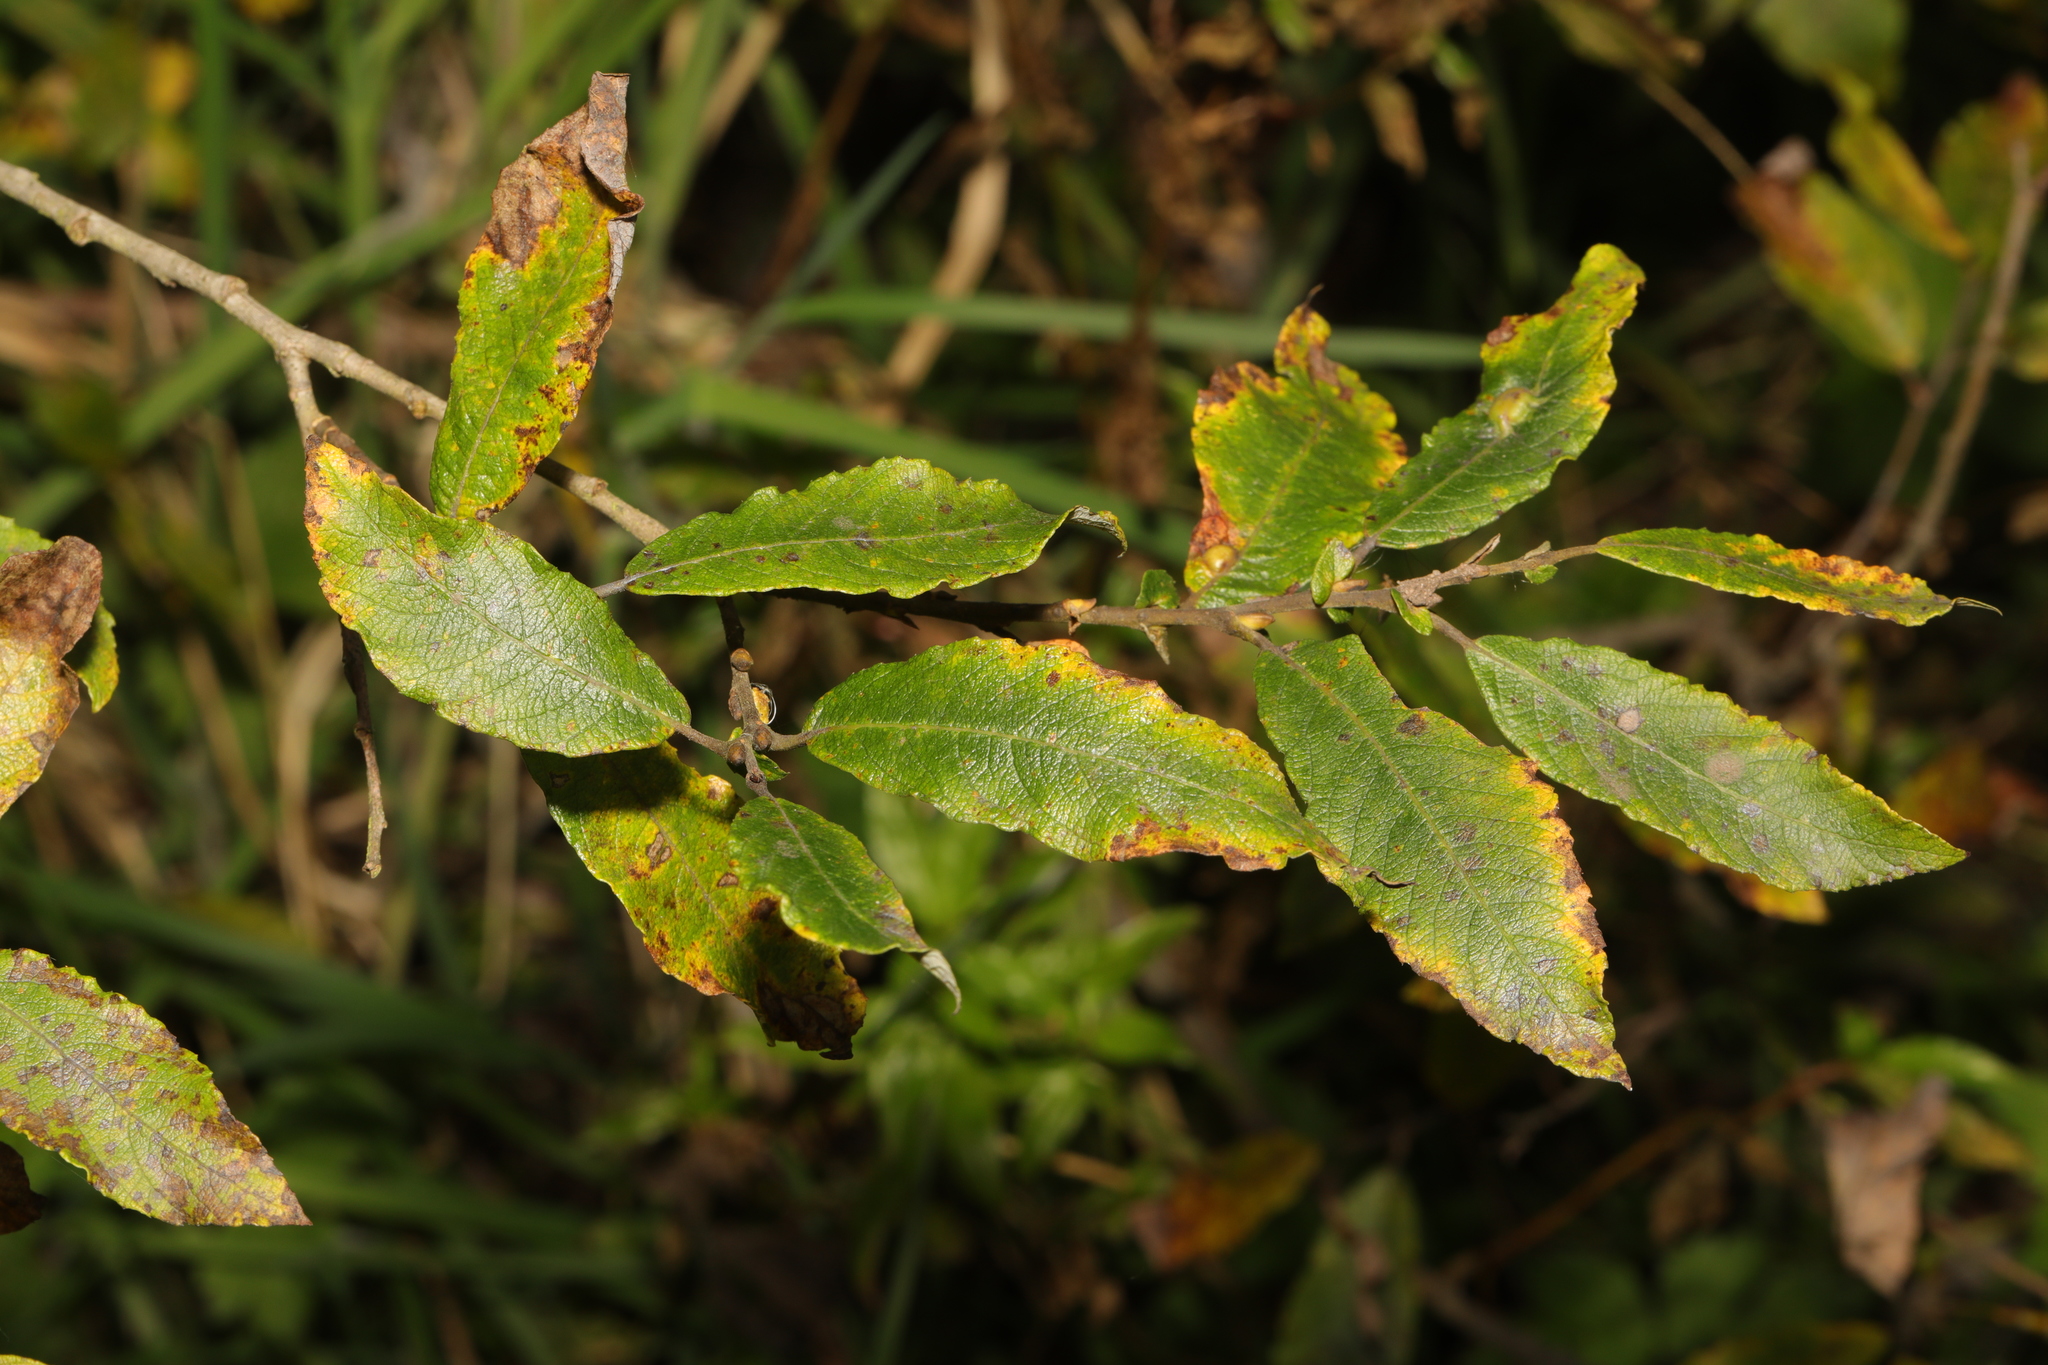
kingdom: Plantae
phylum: Tracheophyta
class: Magnoliopsida
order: Malpighiales
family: Salicaceae
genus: Salix
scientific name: Salix cinerea
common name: Common sallow
